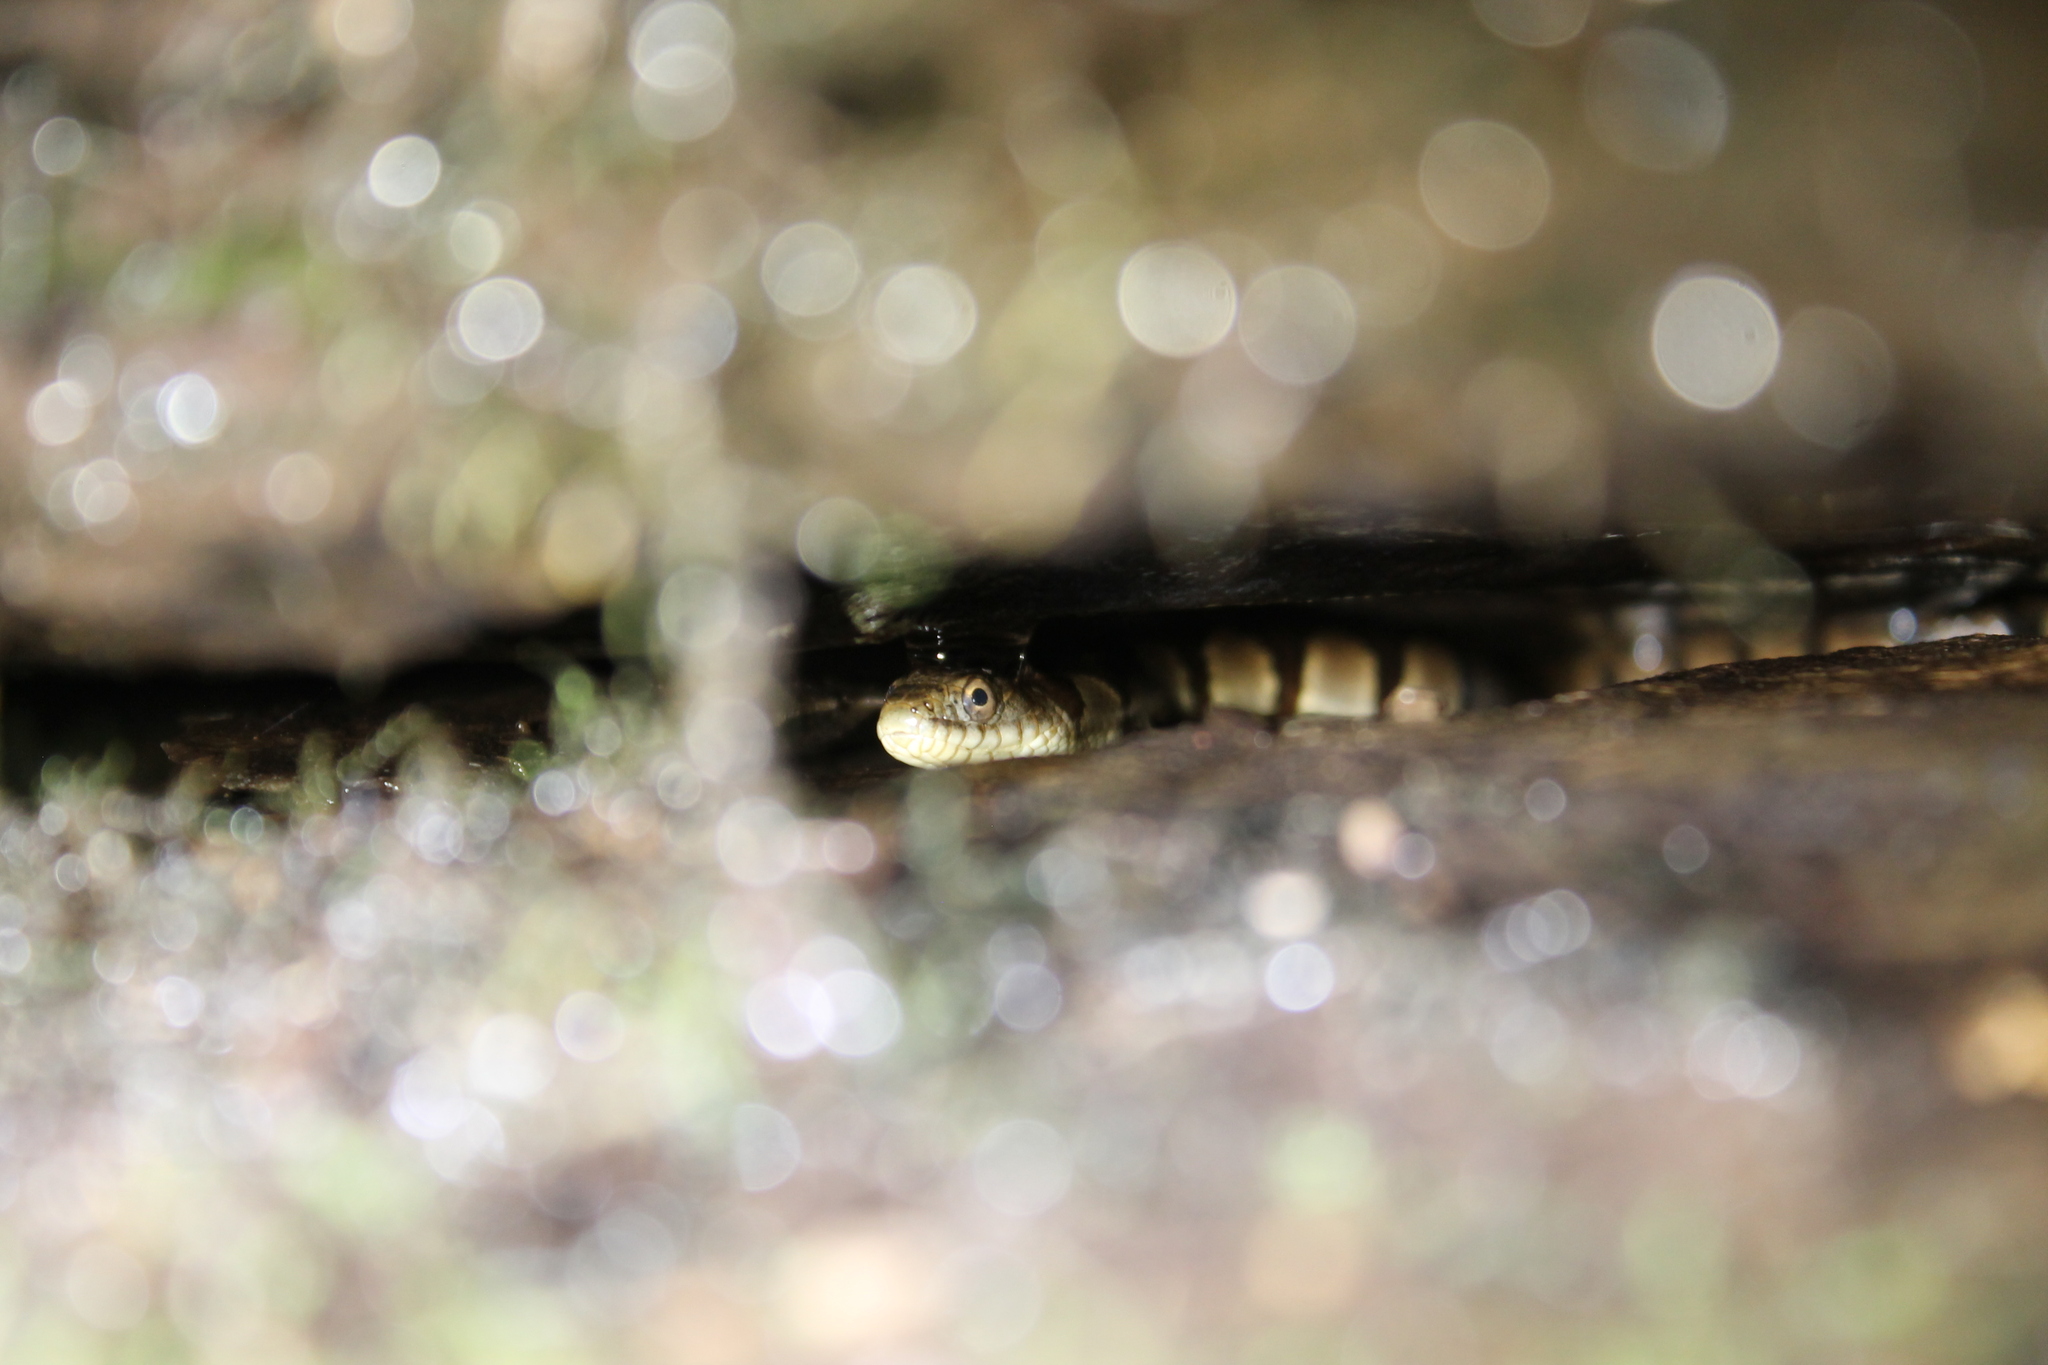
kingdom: Animalia
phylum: Chordata
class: Squamata
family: Colubridae
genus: Nerodia
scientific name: Nerodia sipedon
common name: Northern water snake
